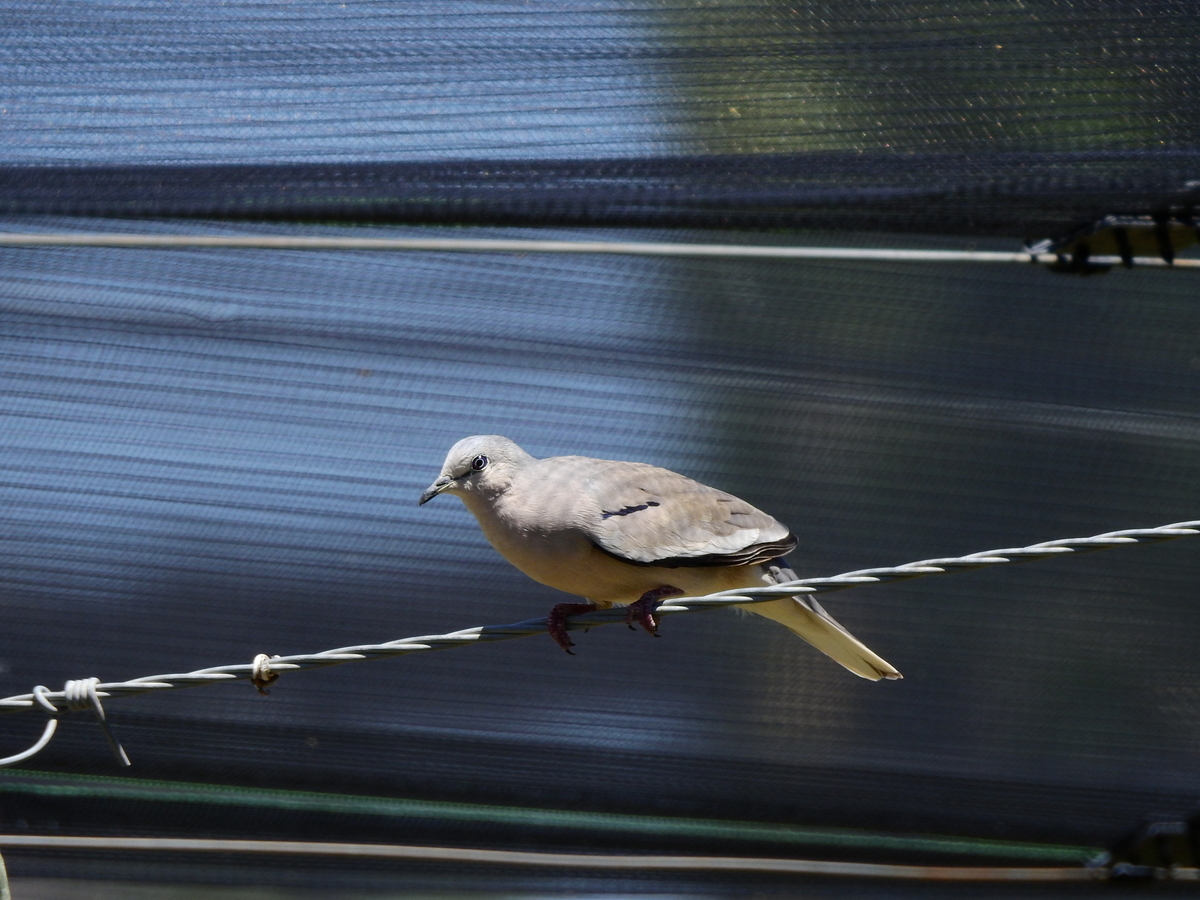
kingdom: Animalia
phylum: Chordata
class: Aves
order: Columbiformes
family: Columbidae
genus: Columbina
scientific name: Columbina picui
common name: Picui ground dove
